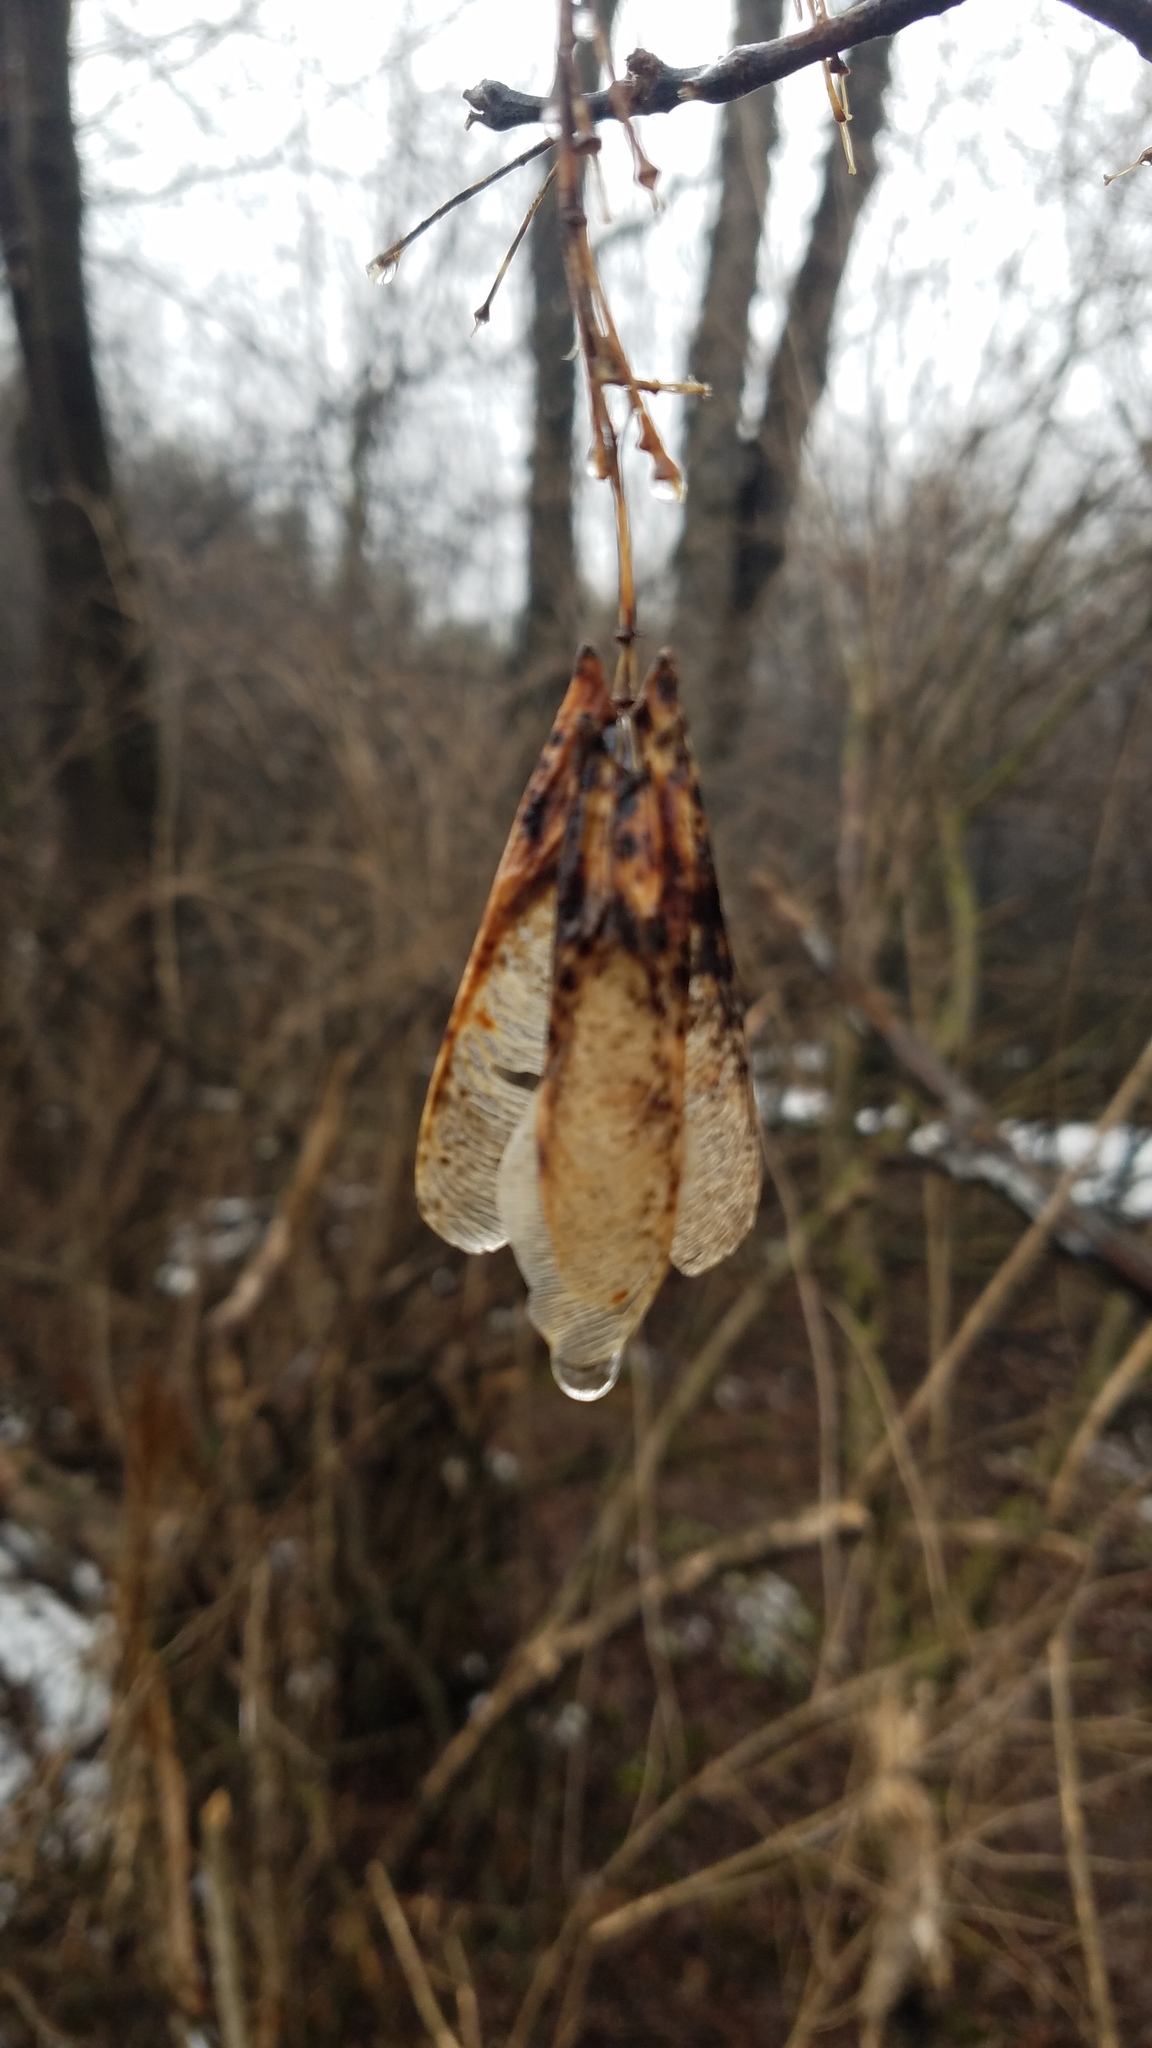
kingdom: Plantae
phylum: Tracheophyta
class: Magnoliopsida
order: Sapindales
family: Sapindaceae
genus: Acer
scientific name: Acer negundo
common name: Ashleaf maple
